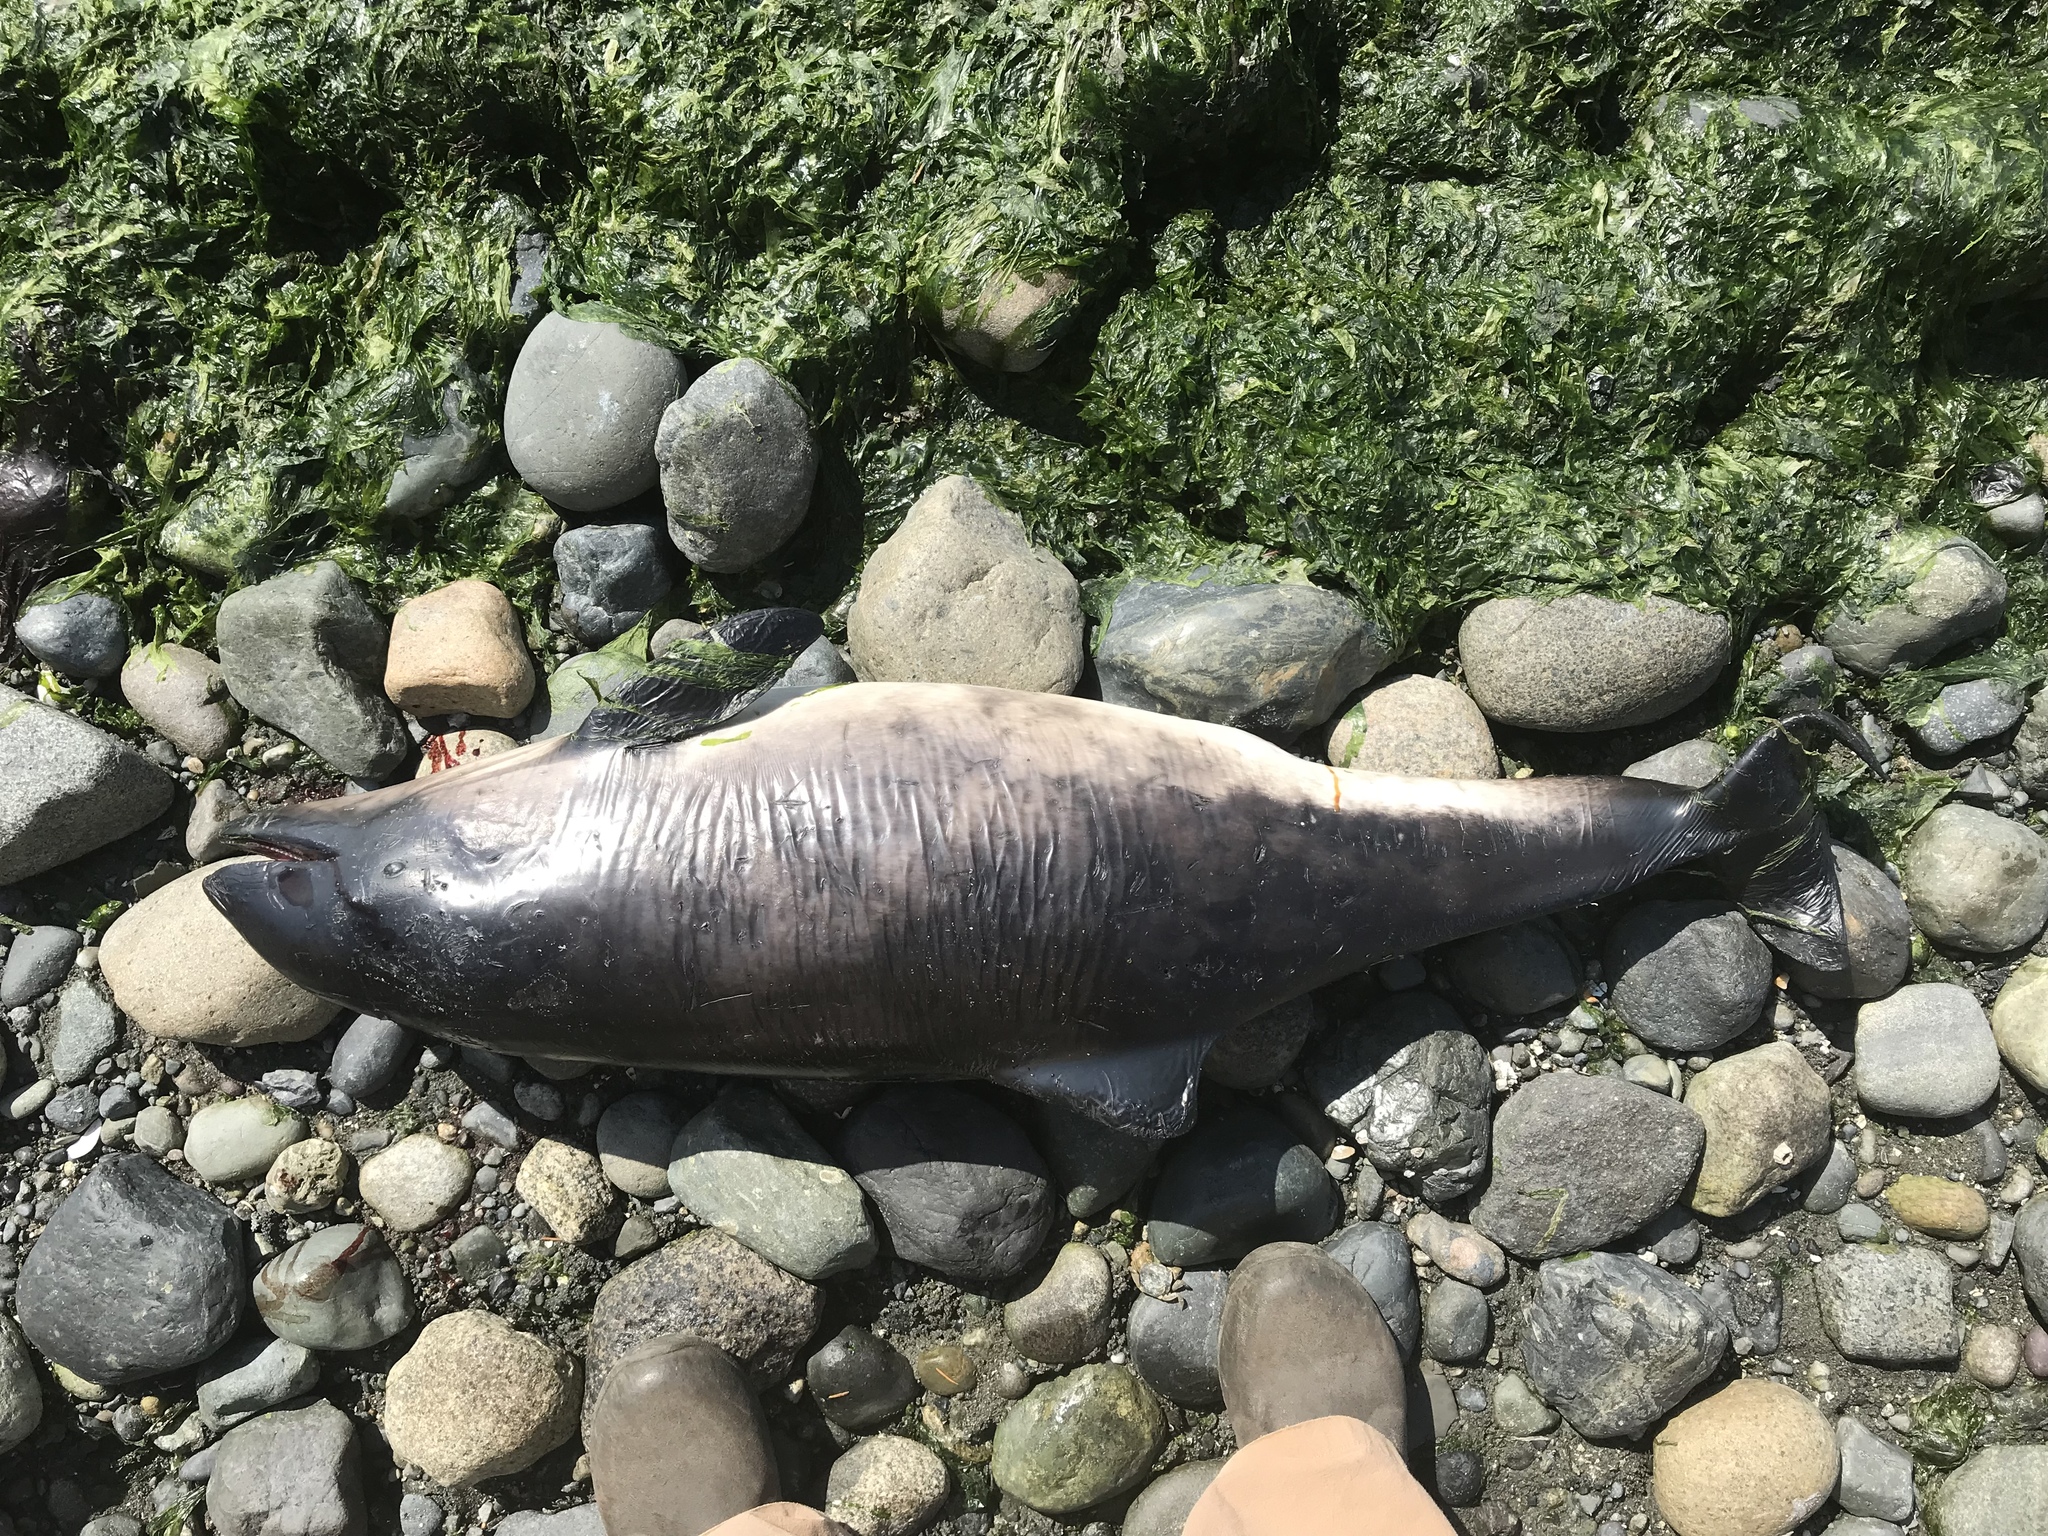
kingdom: Animalia
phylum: Chordata
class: Mammalia
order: Cetacea
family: Phocoenidae
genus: Phocoena
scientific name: Phocoena phocoena
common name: Harbor porpoise
